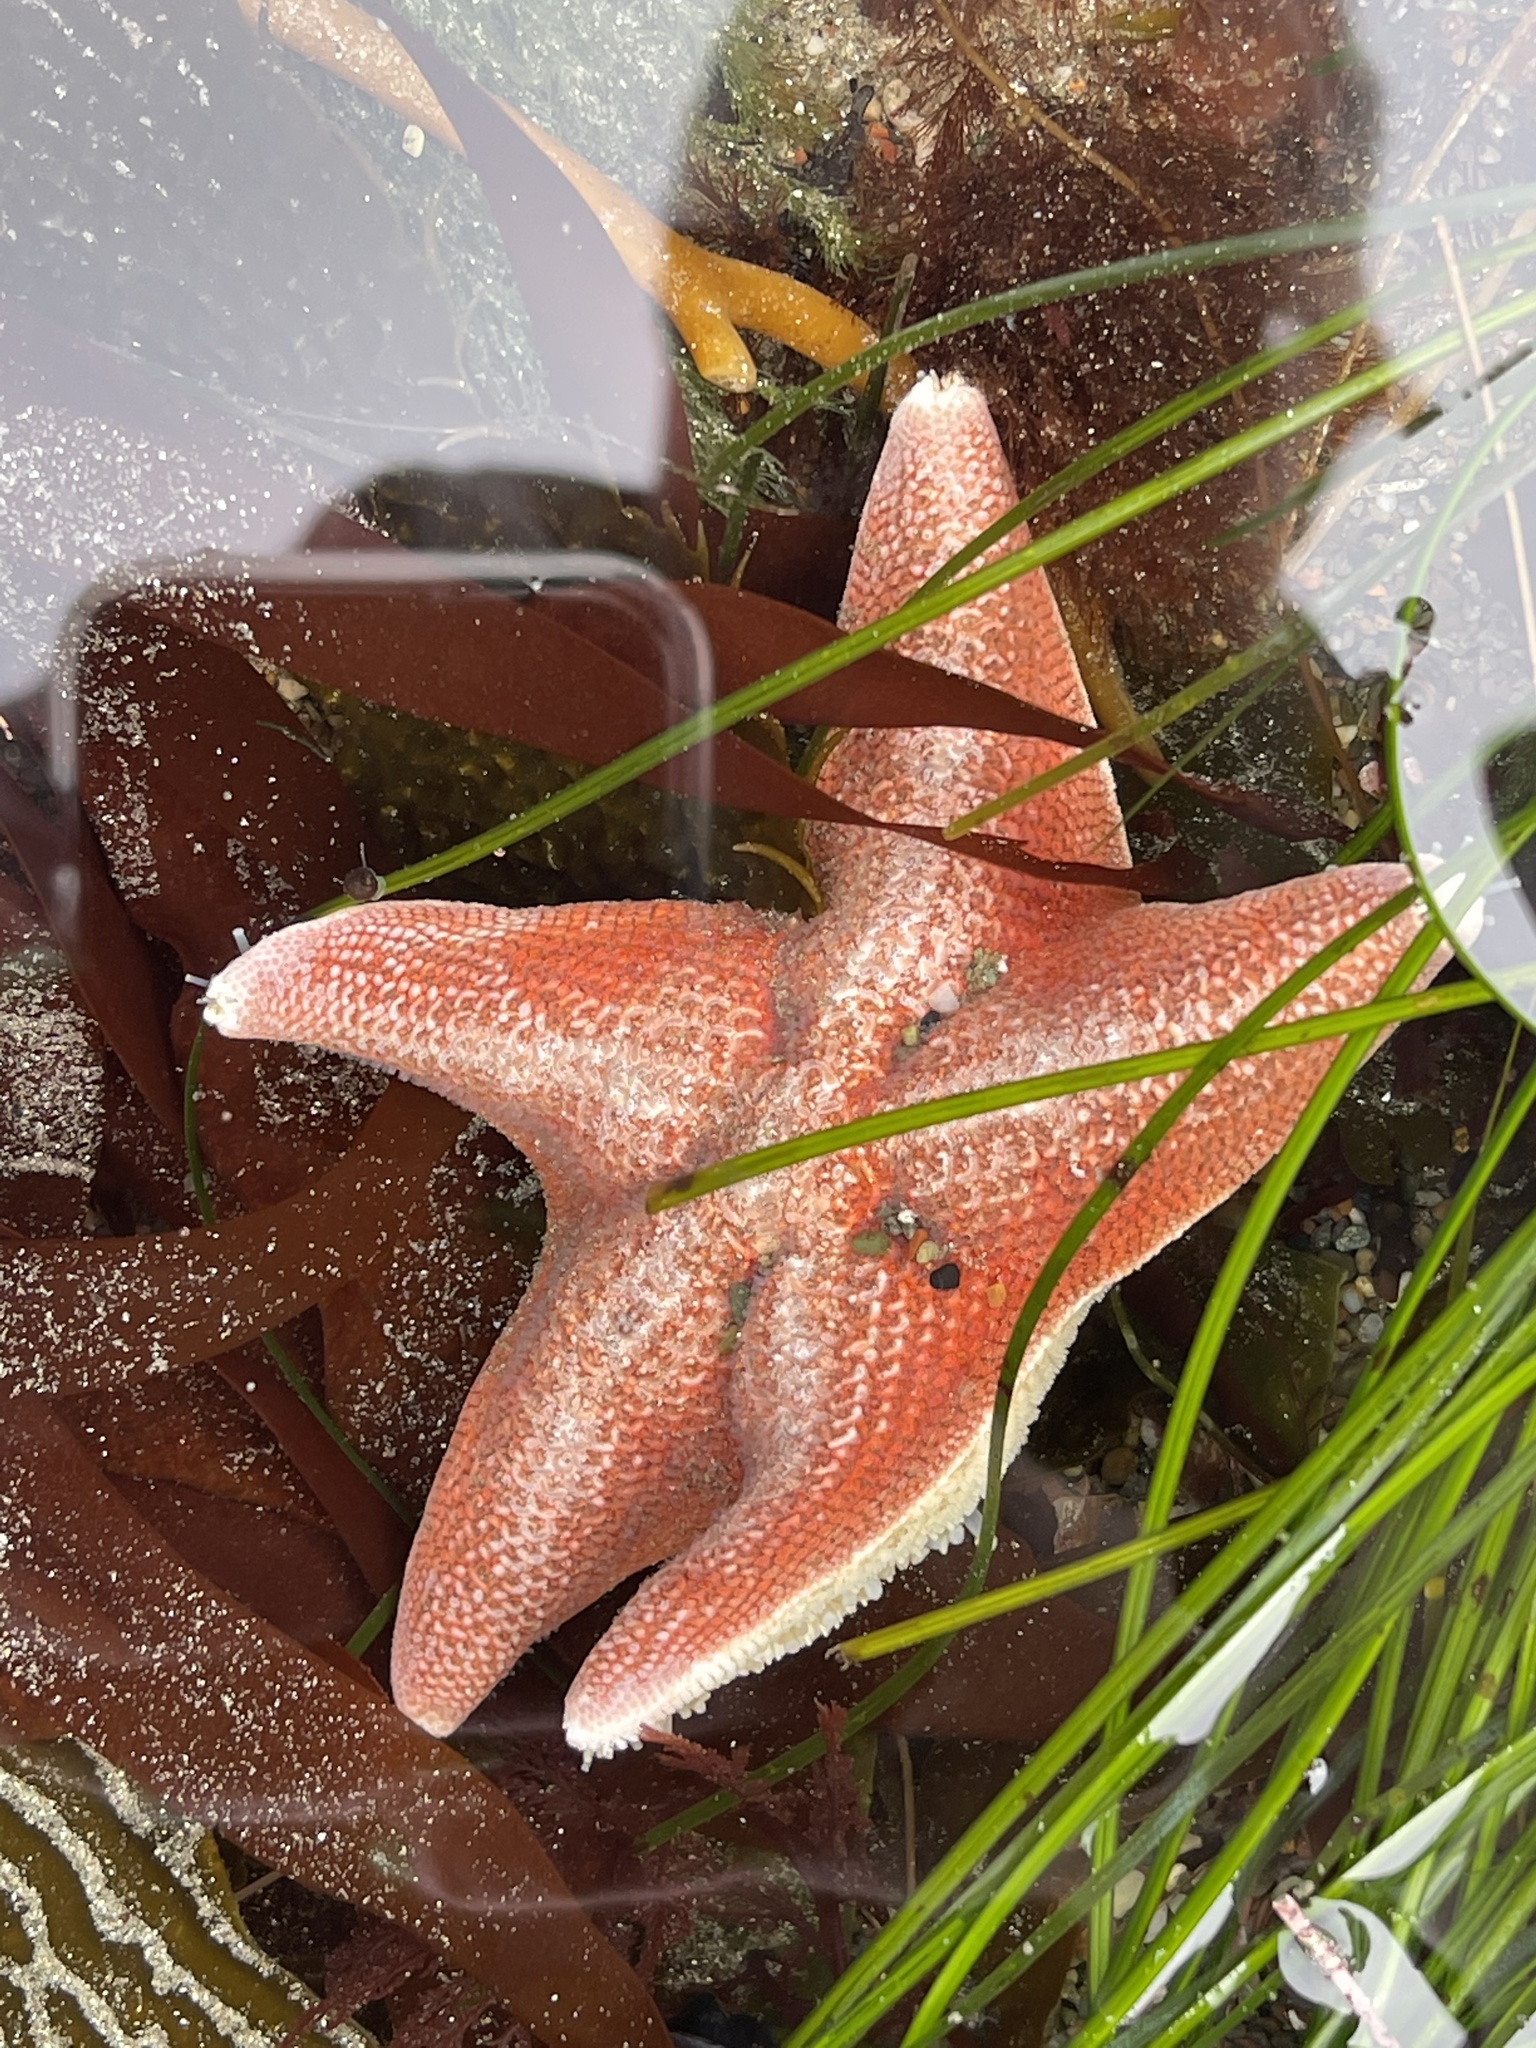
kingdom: Animalia
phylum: Echinodermata
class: Asteroidea
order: Valvatida
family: Asterinidae
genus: Patiria
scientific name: Patiria miniata
